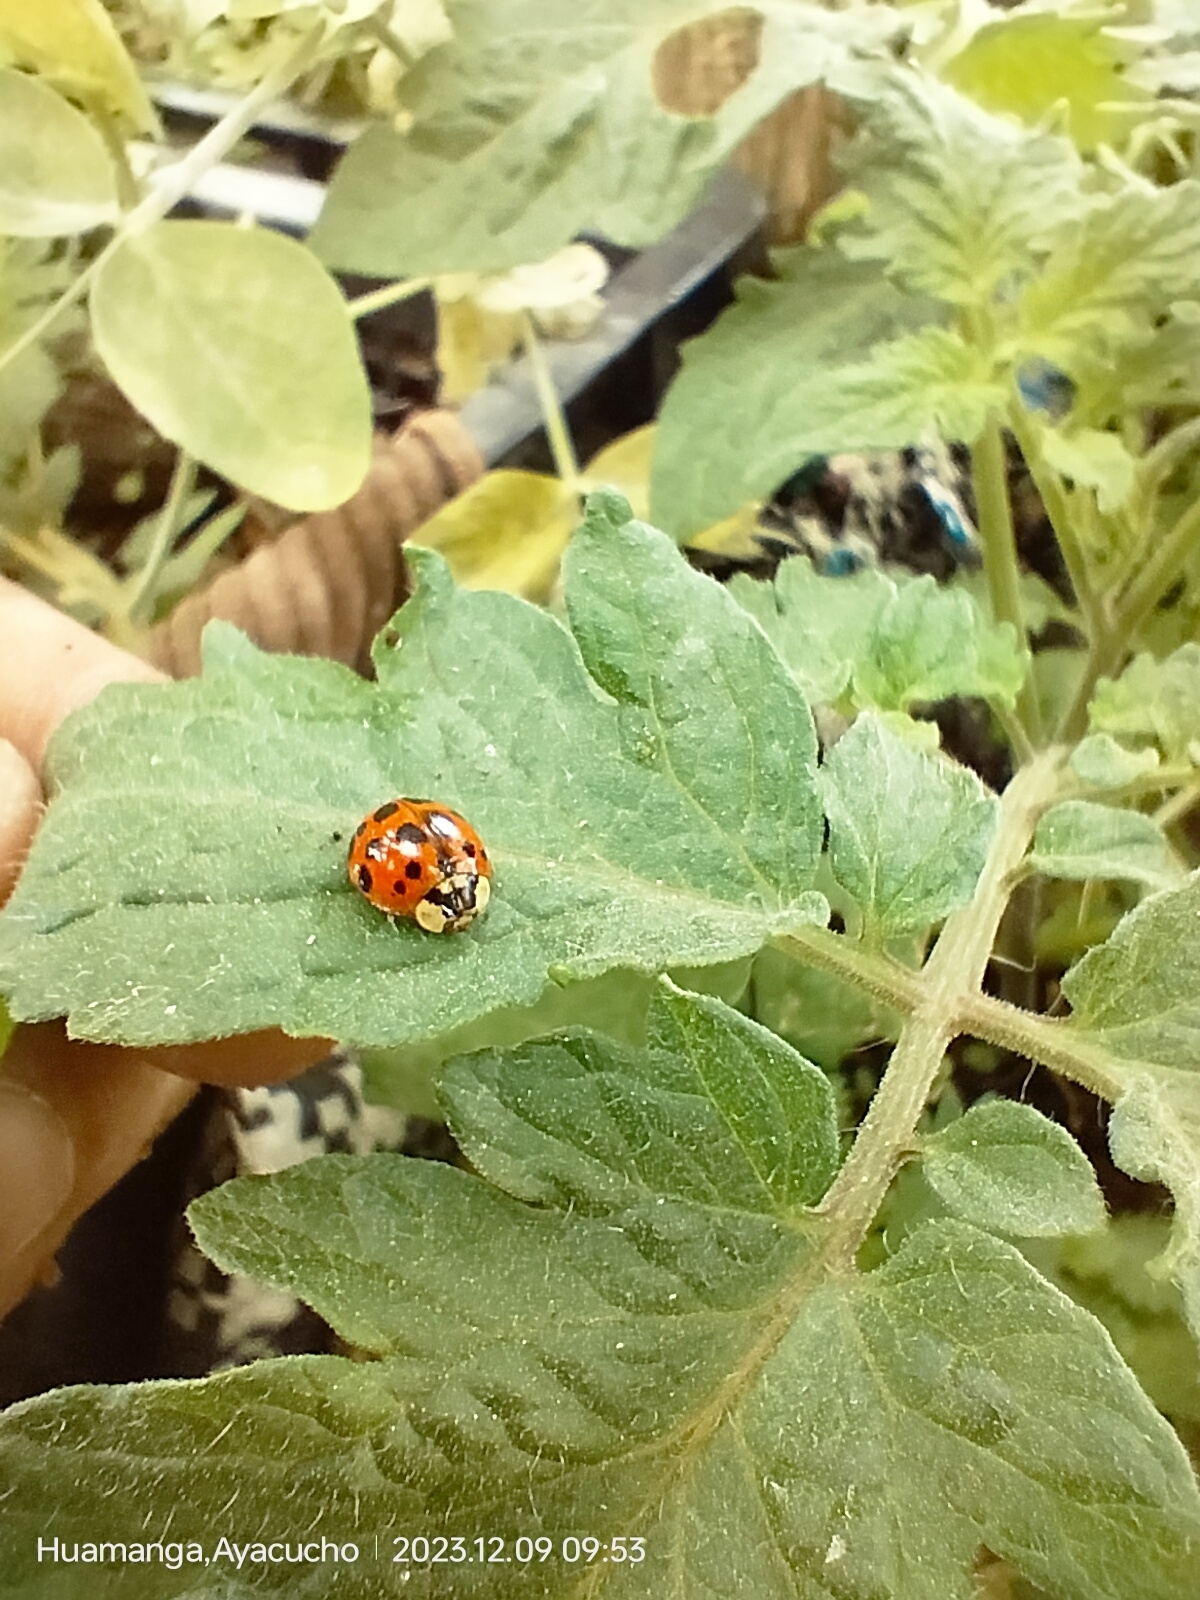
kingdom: Animalia
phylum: Arthropoda
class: Insecta
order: Coleoptera
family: Coccinellidae
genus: Harmonia
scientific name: Harmonia axyridis
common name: Harlequin ladybird
